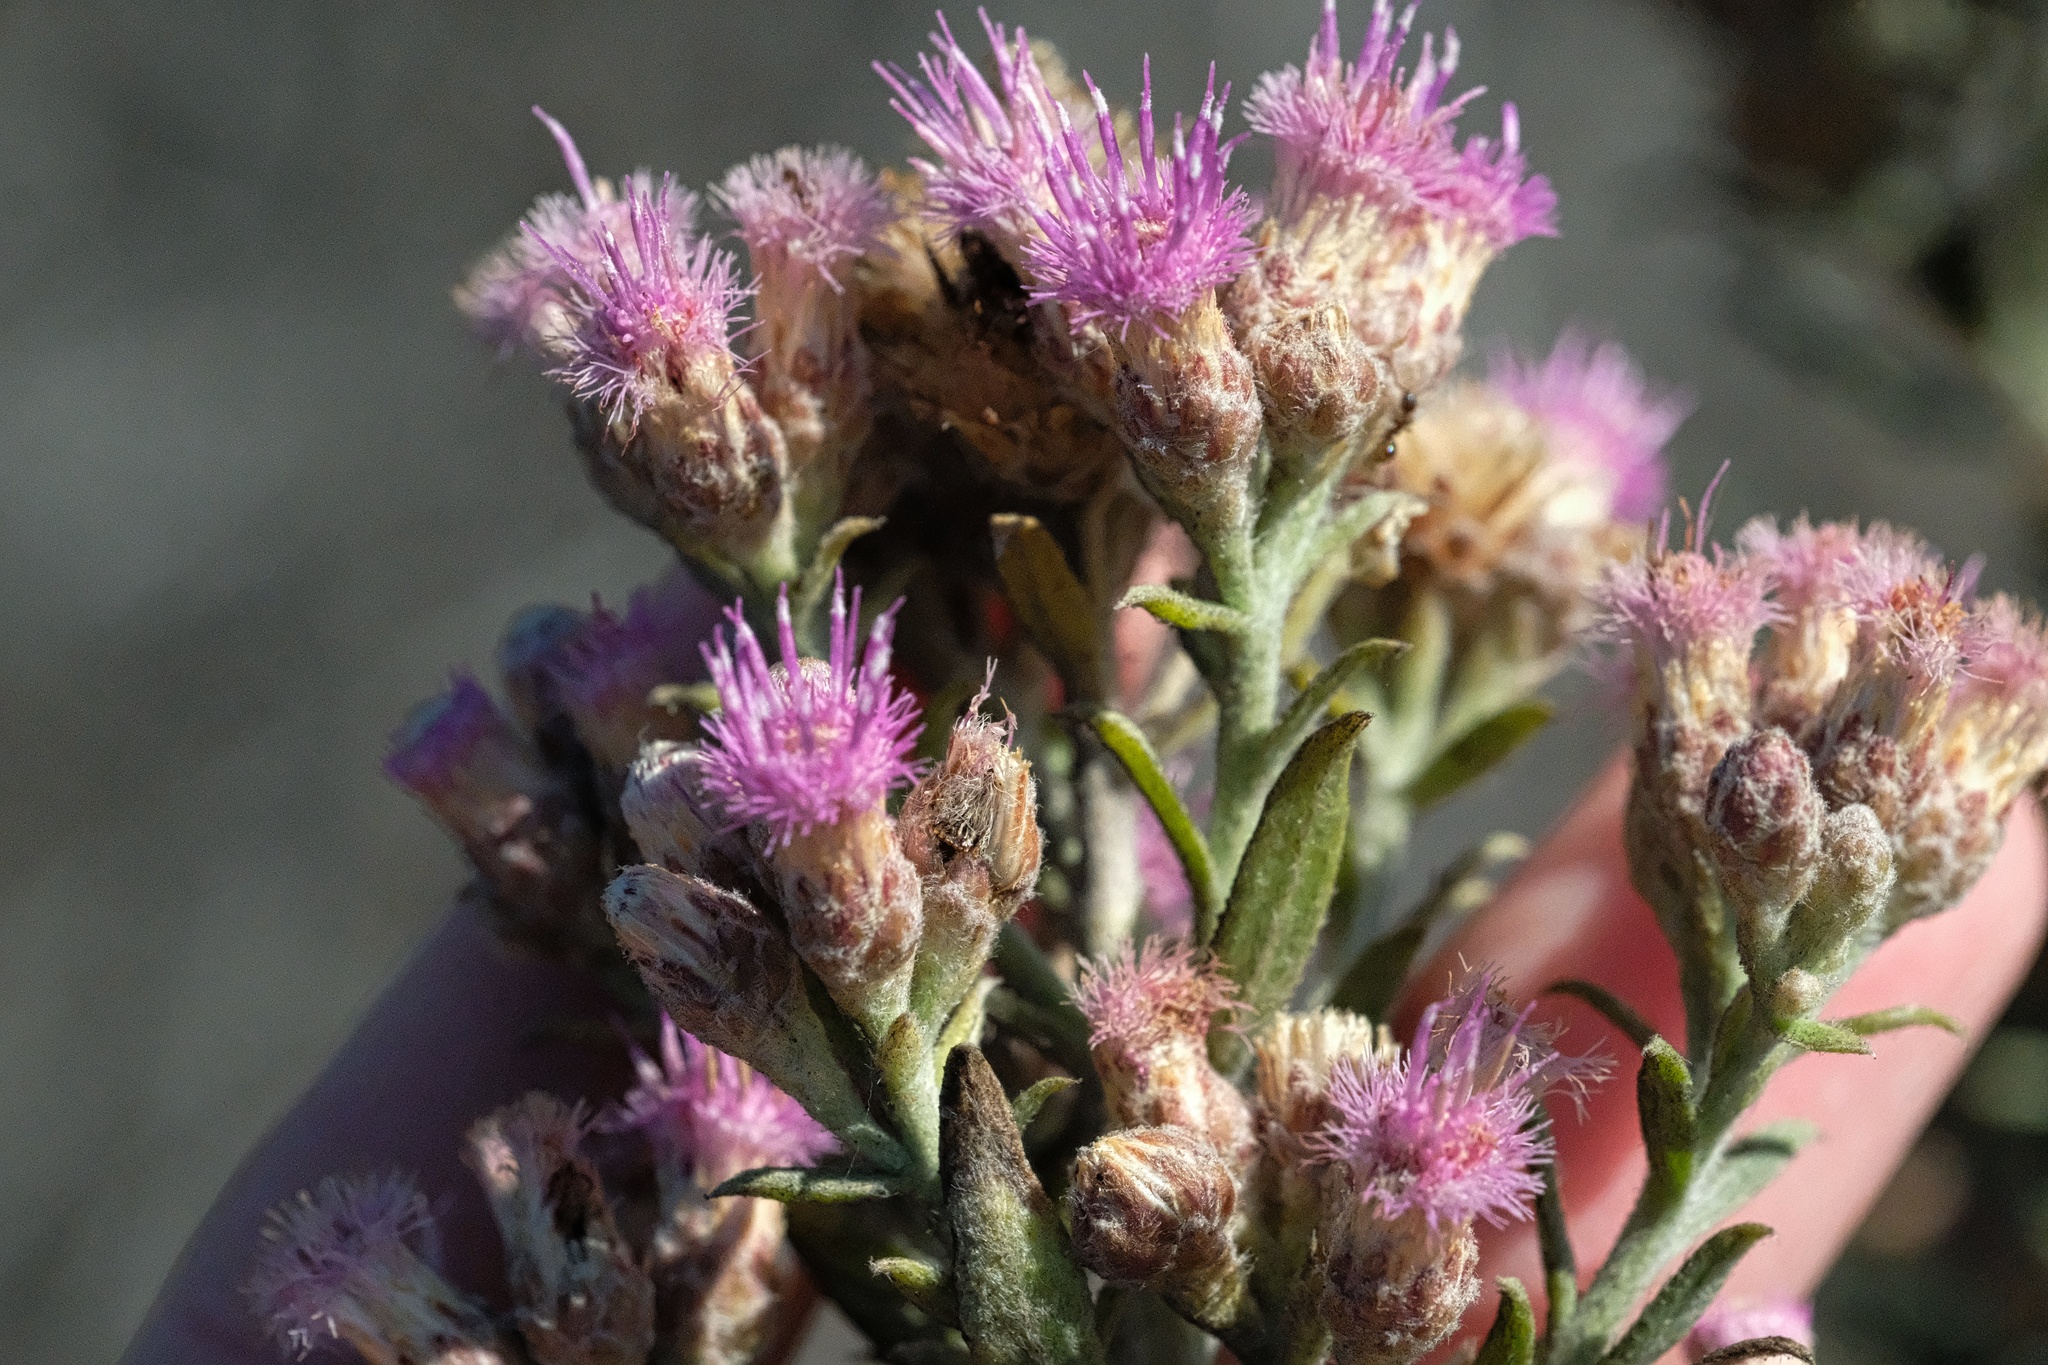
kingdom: Plantae
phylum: Tracheophyta
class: Magnoliopsida
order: Asterales
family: Asteraceae
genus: Pluchea
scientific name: Pluchea sericea
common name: Arrow-weed
